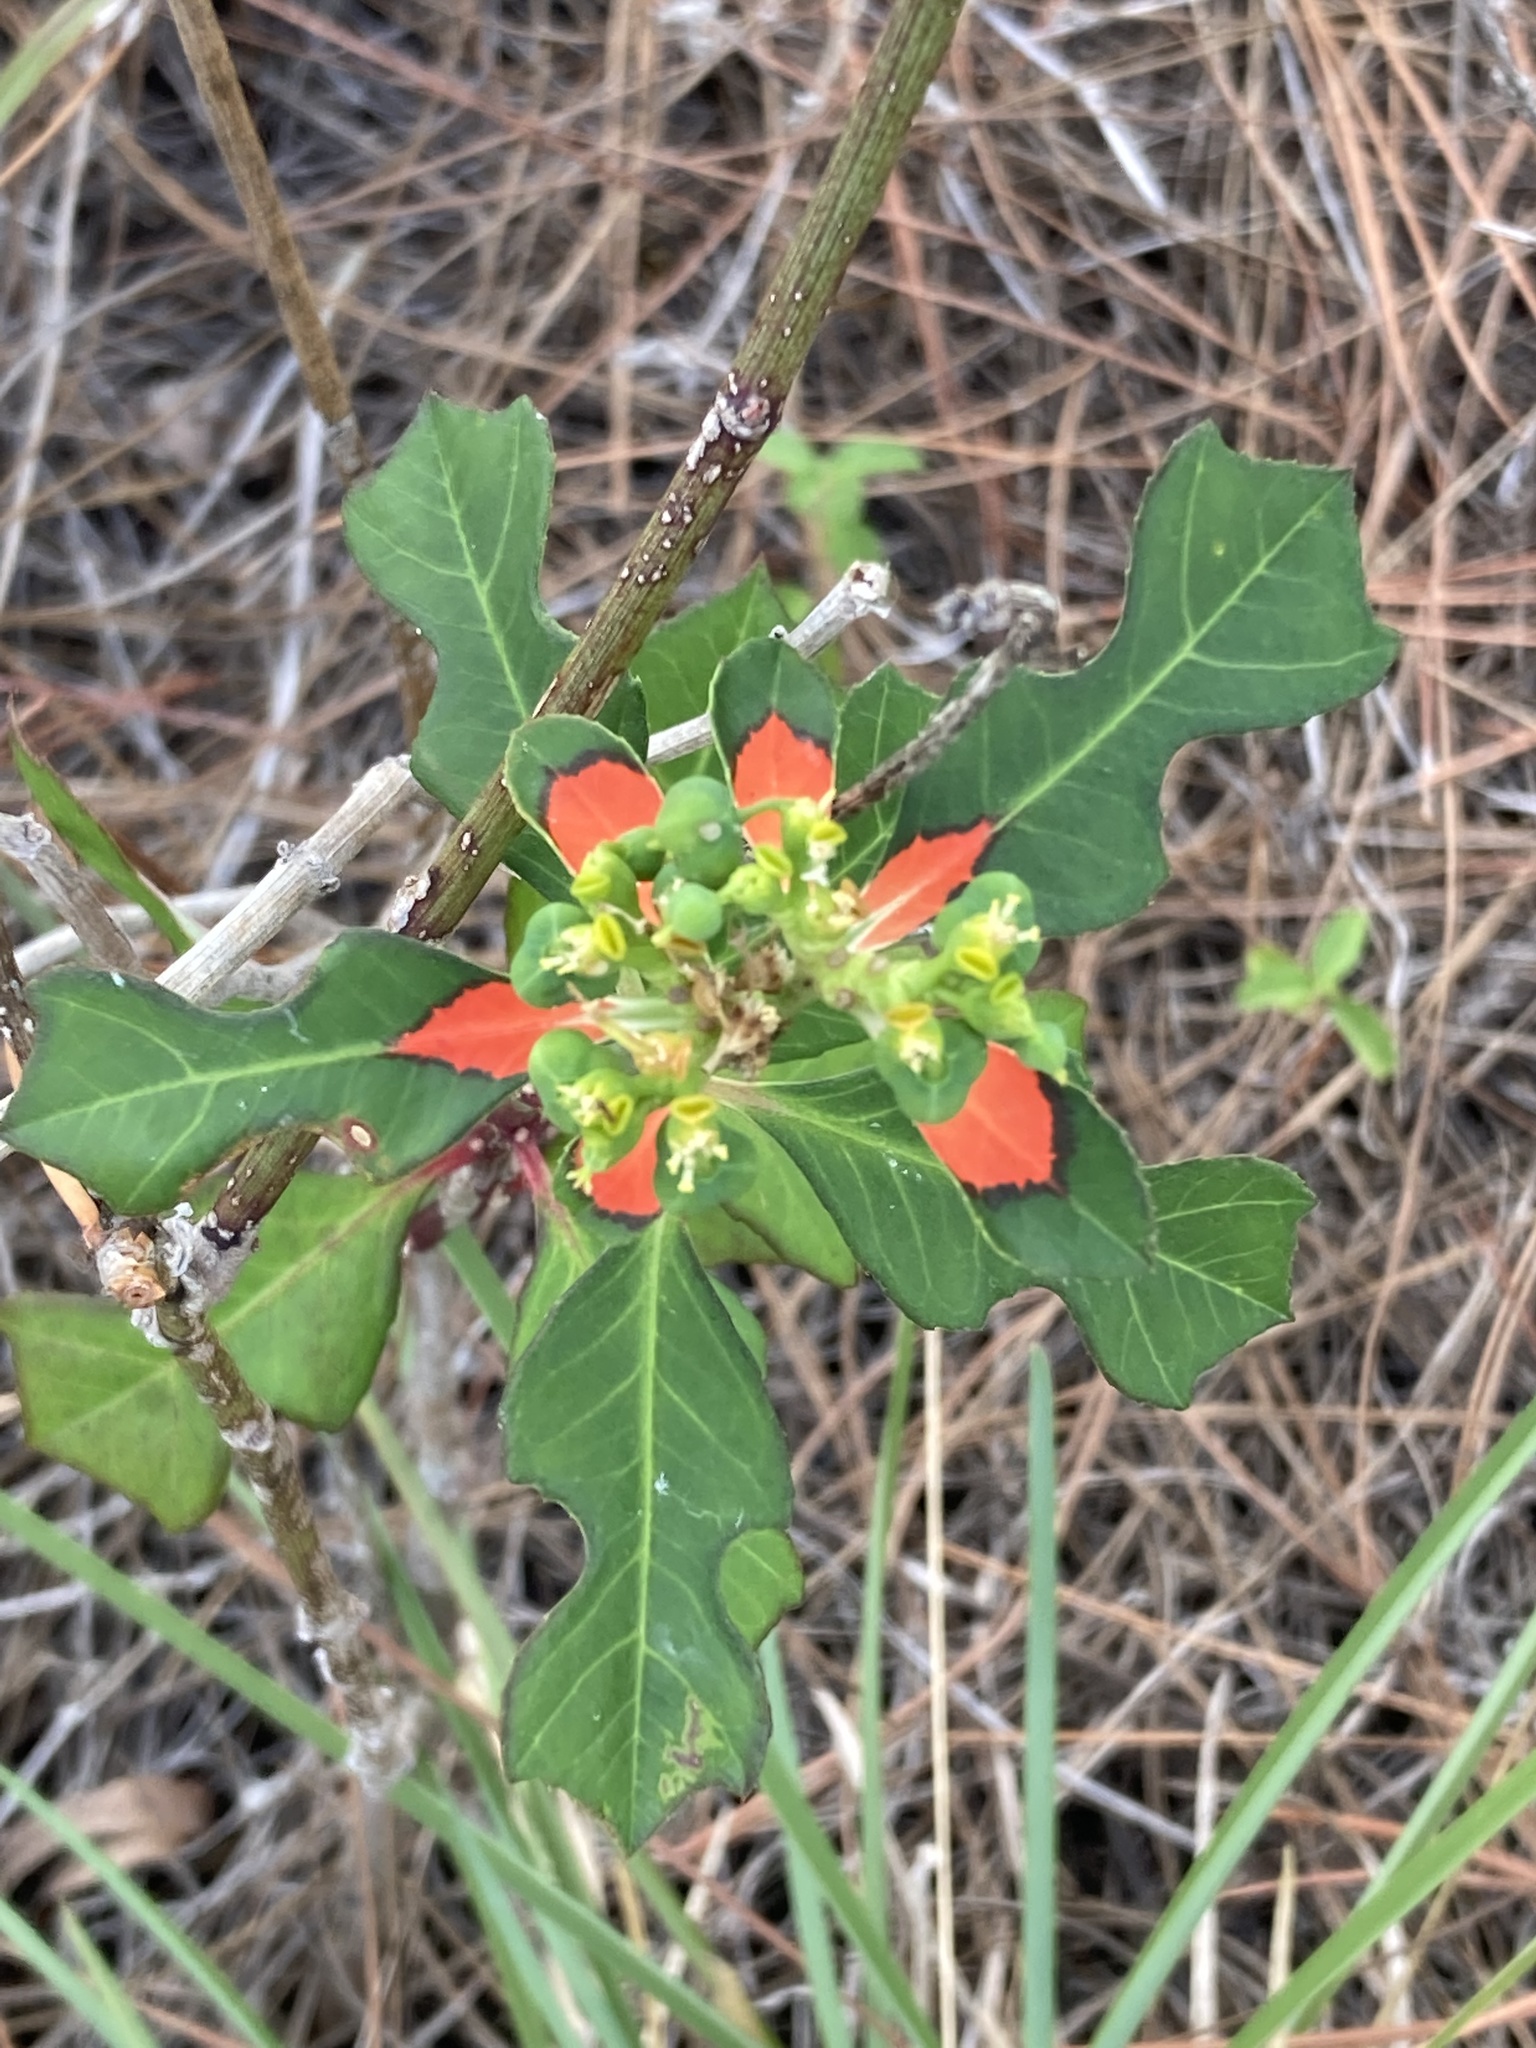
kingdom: Plantae
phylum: Tracheophyta
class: Magnoliopsida
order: Malpighiales
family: Euphorbiaceae
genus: Euphorbia
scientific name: Euphorbia heterophylla
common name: Mexican fireplant
